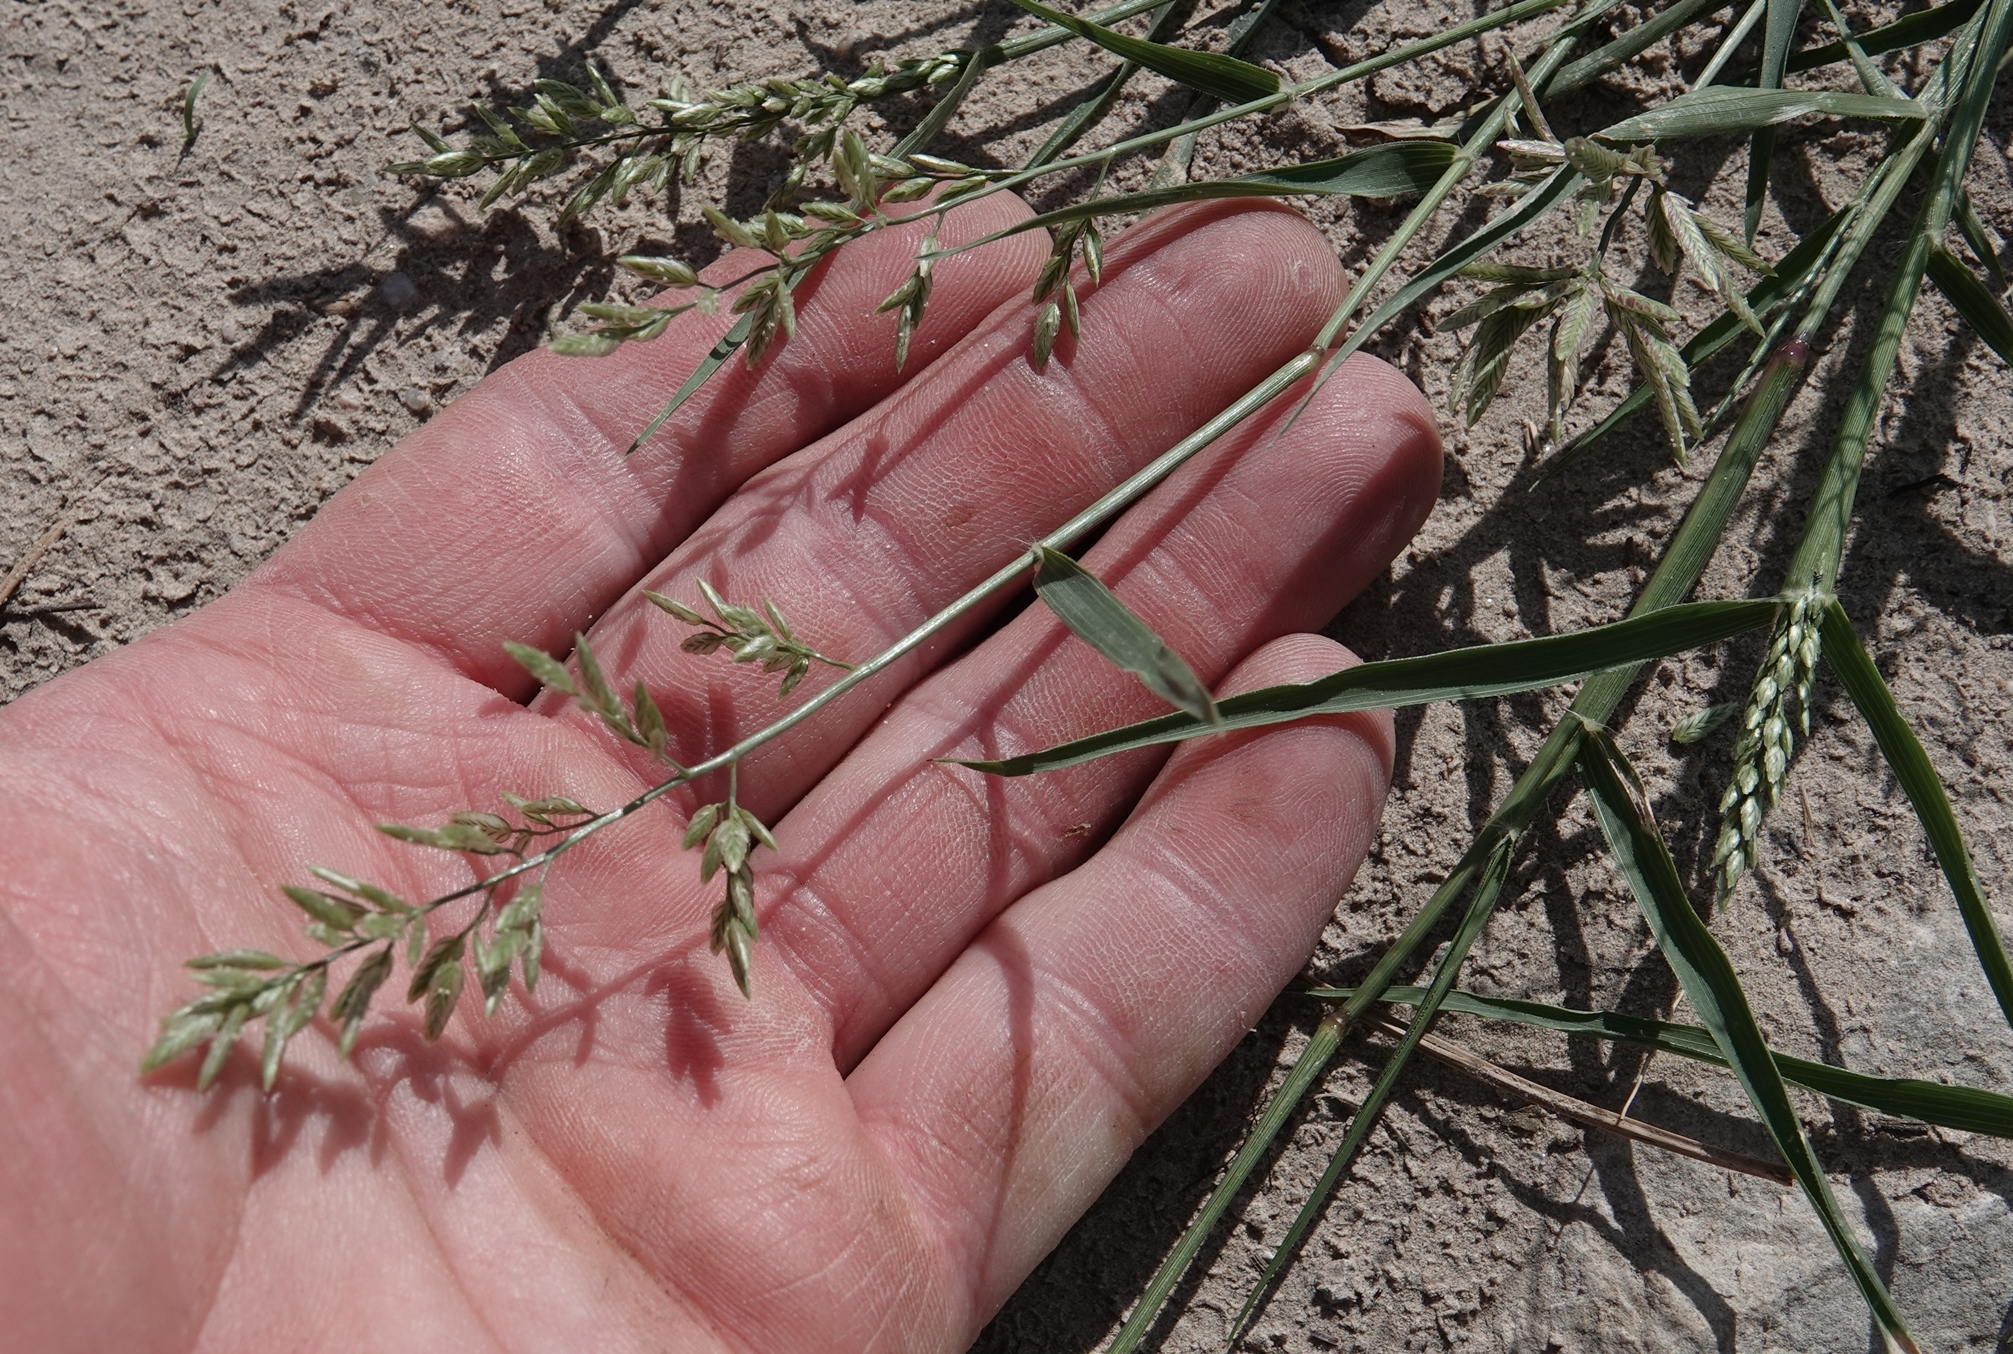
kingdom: Plantae
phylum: Tracheophyta
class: Liliopsida
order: Poales
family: Poaceae
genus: Eragrostis
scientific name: Eragrostis cilianensis
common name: Stinkgrass
